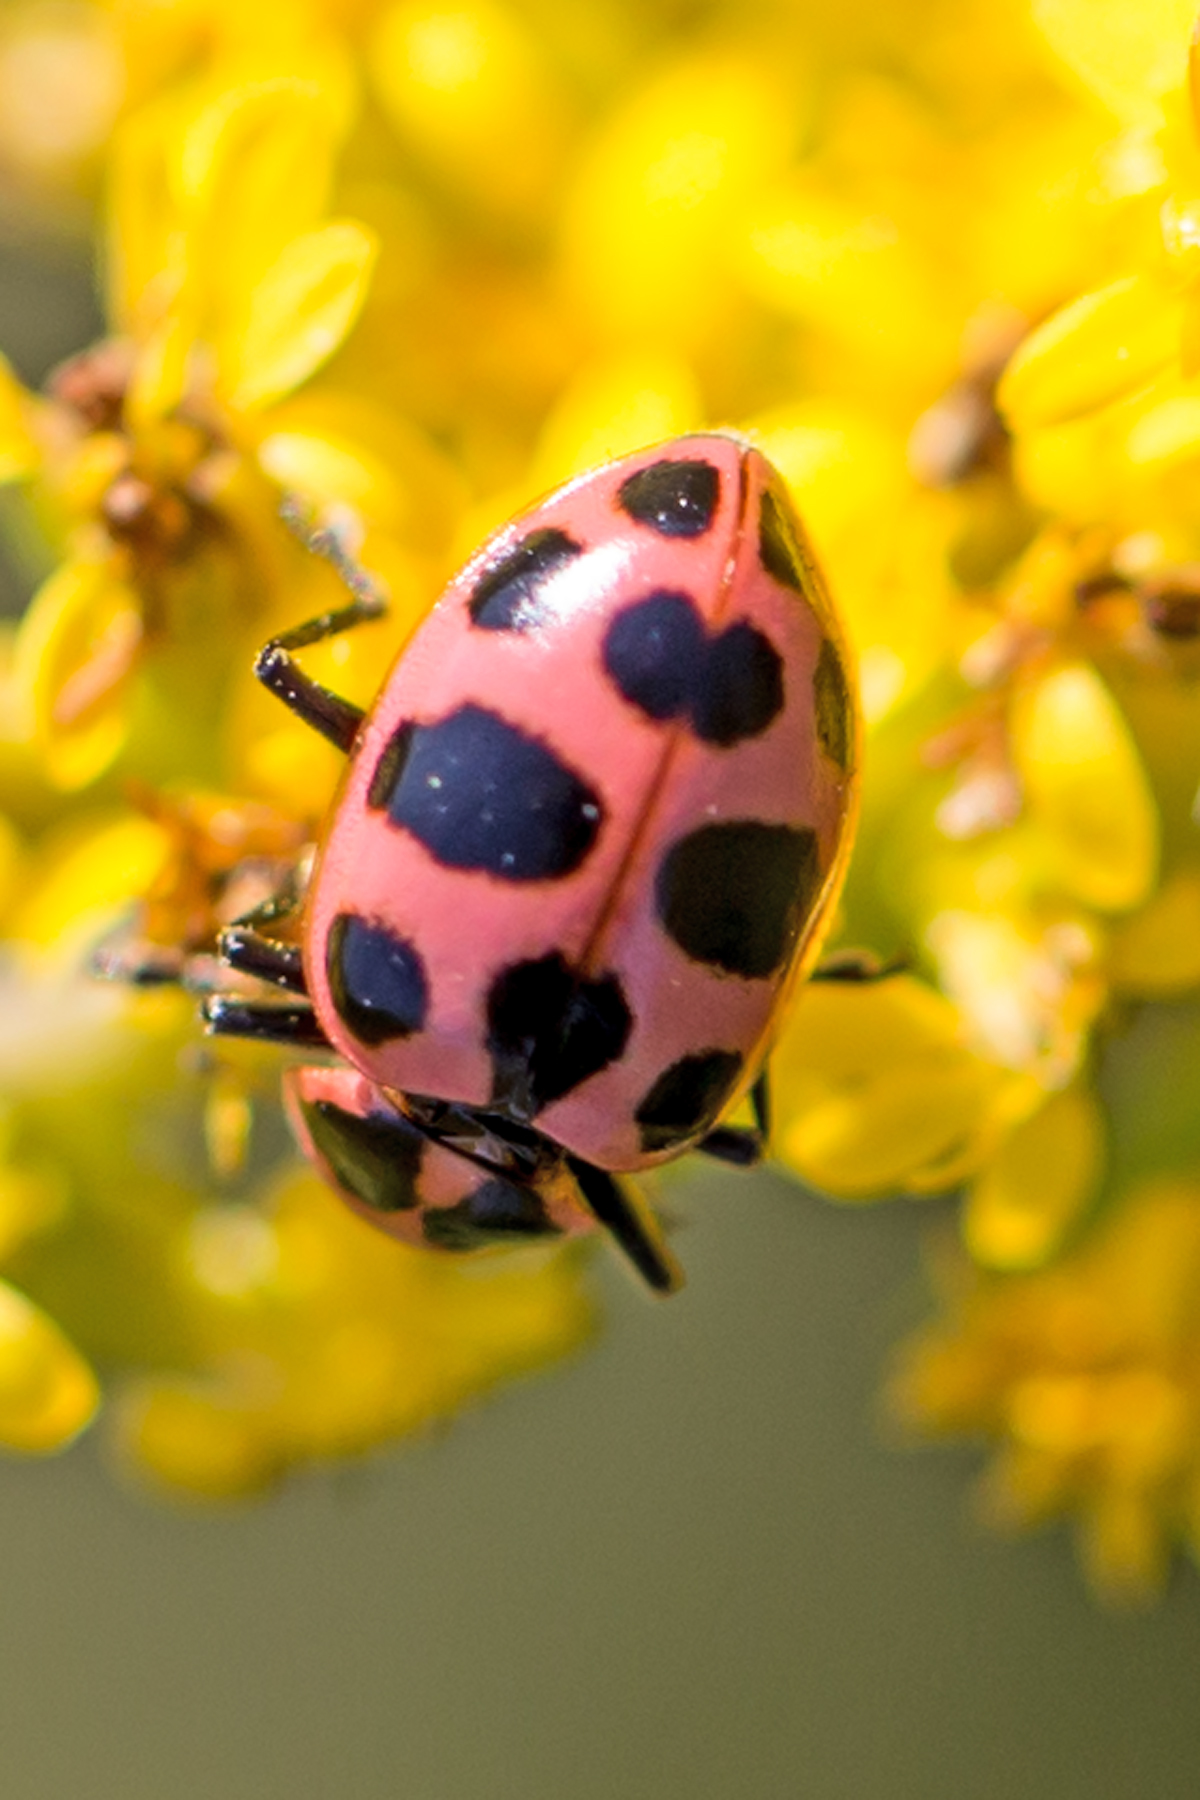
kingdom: Animalia
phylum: Arthropoda
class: Insecta
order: Coleoptera
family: Coccinellidae
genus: Coleomegilla
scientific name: Coleomegilla maculata
